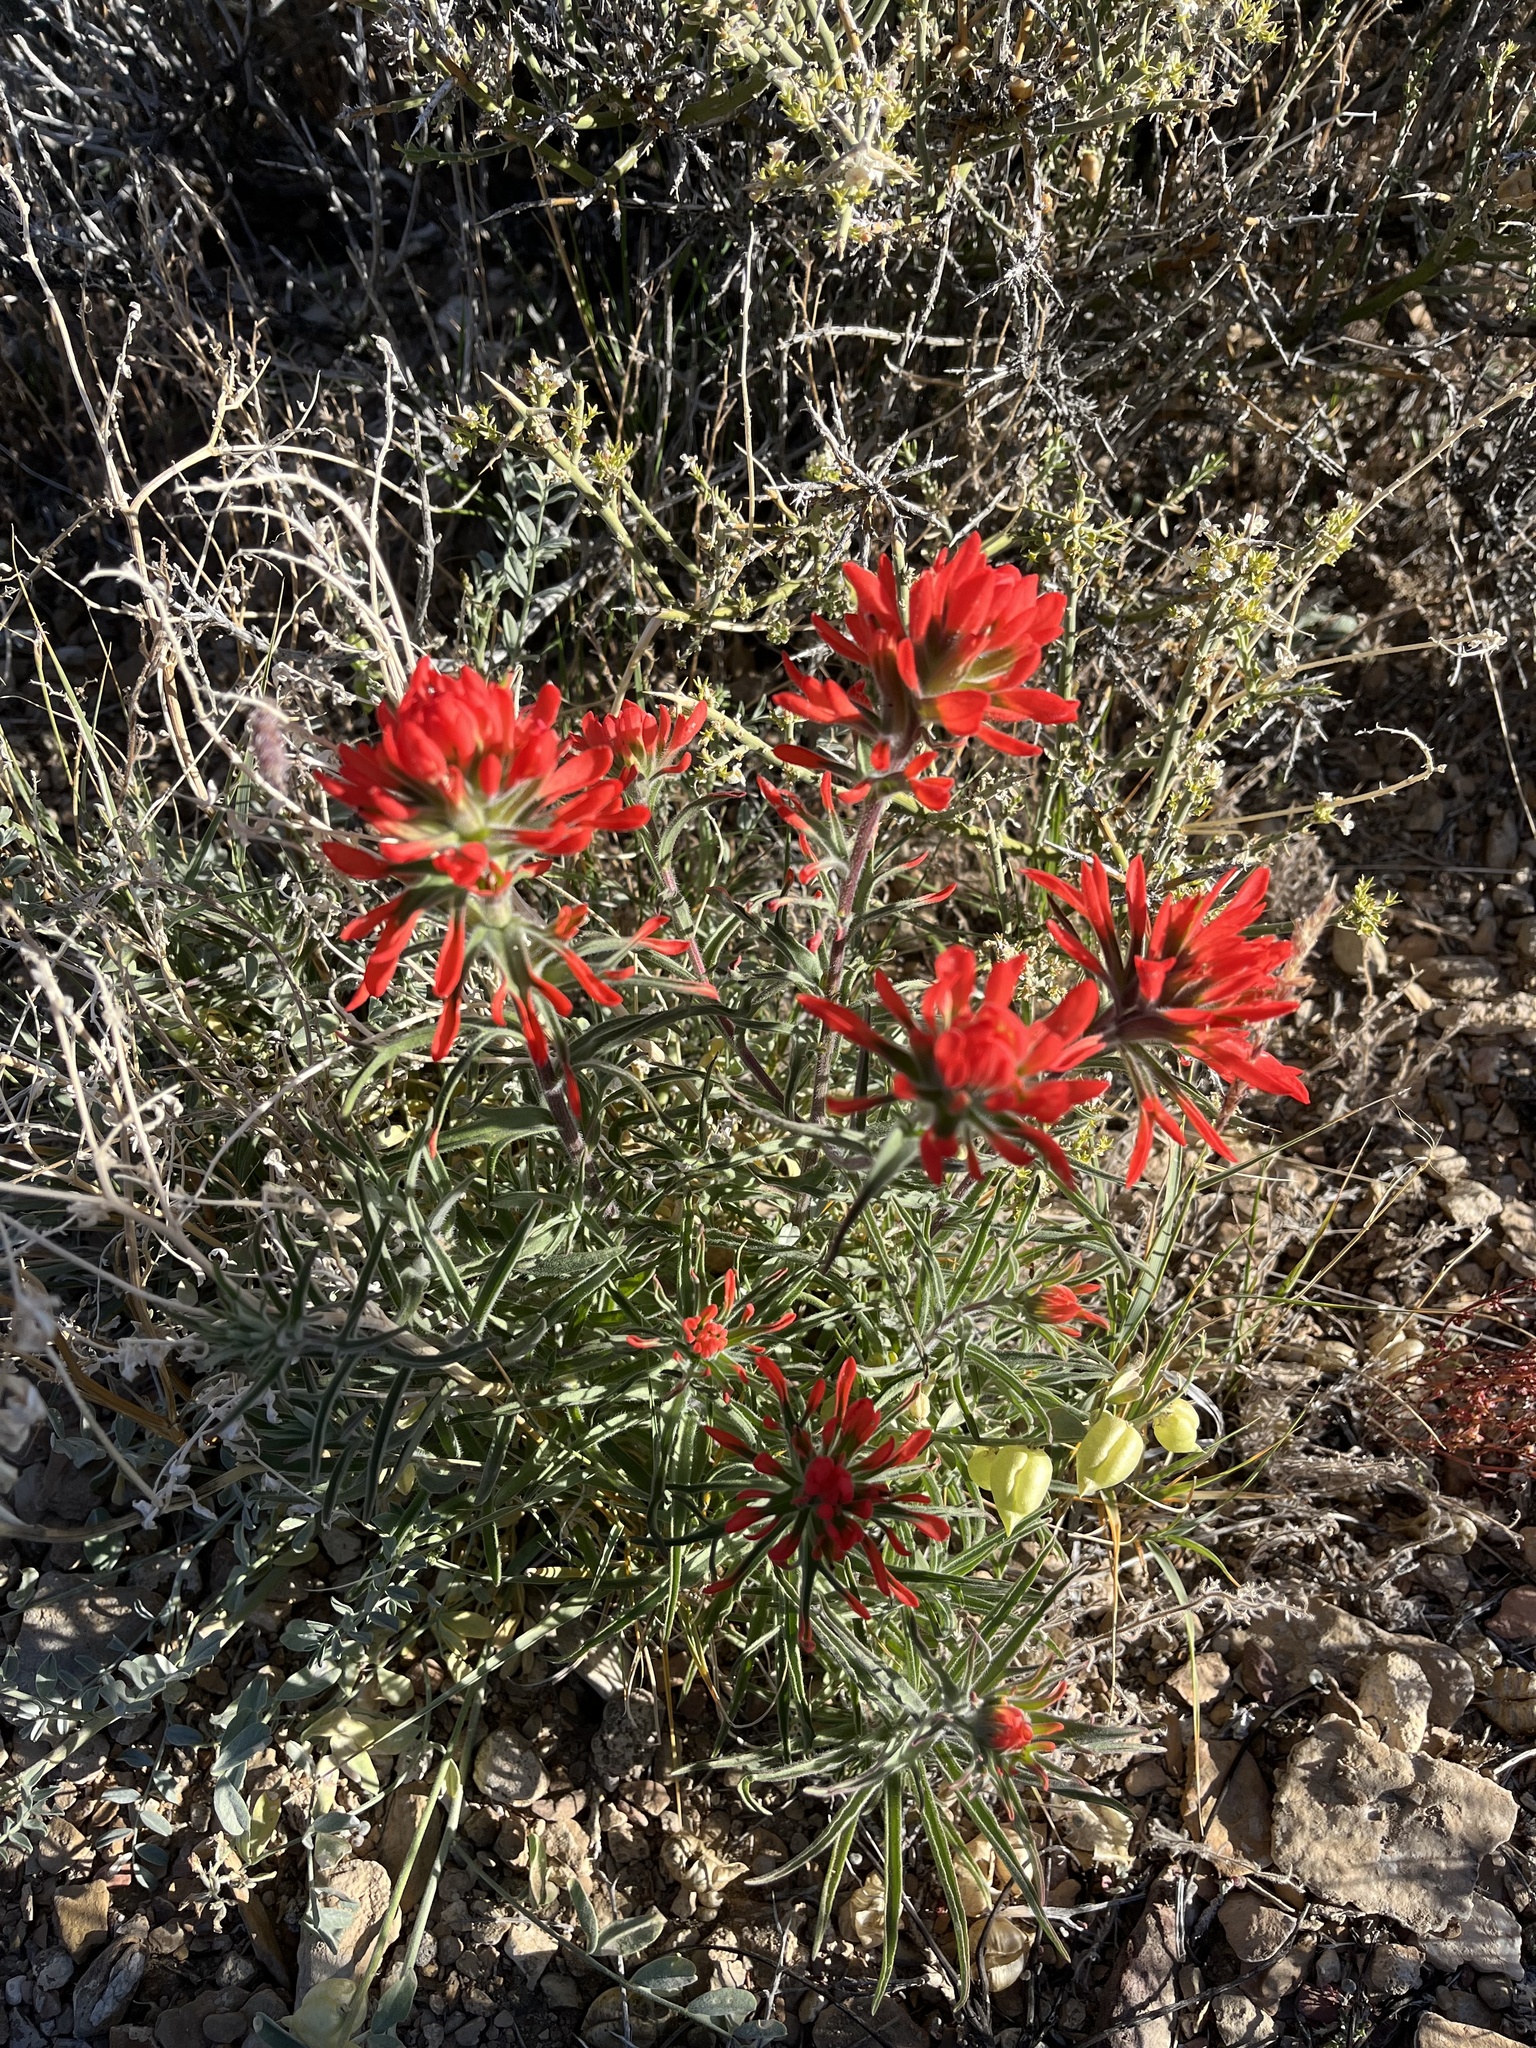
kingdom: Plantae
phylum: Tracheophyta
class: Magnoliopsida
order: Lamiales
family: Orobanchaceae
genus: Castilleja
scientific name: Castilleja chromosa
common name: Desert paintbrush
